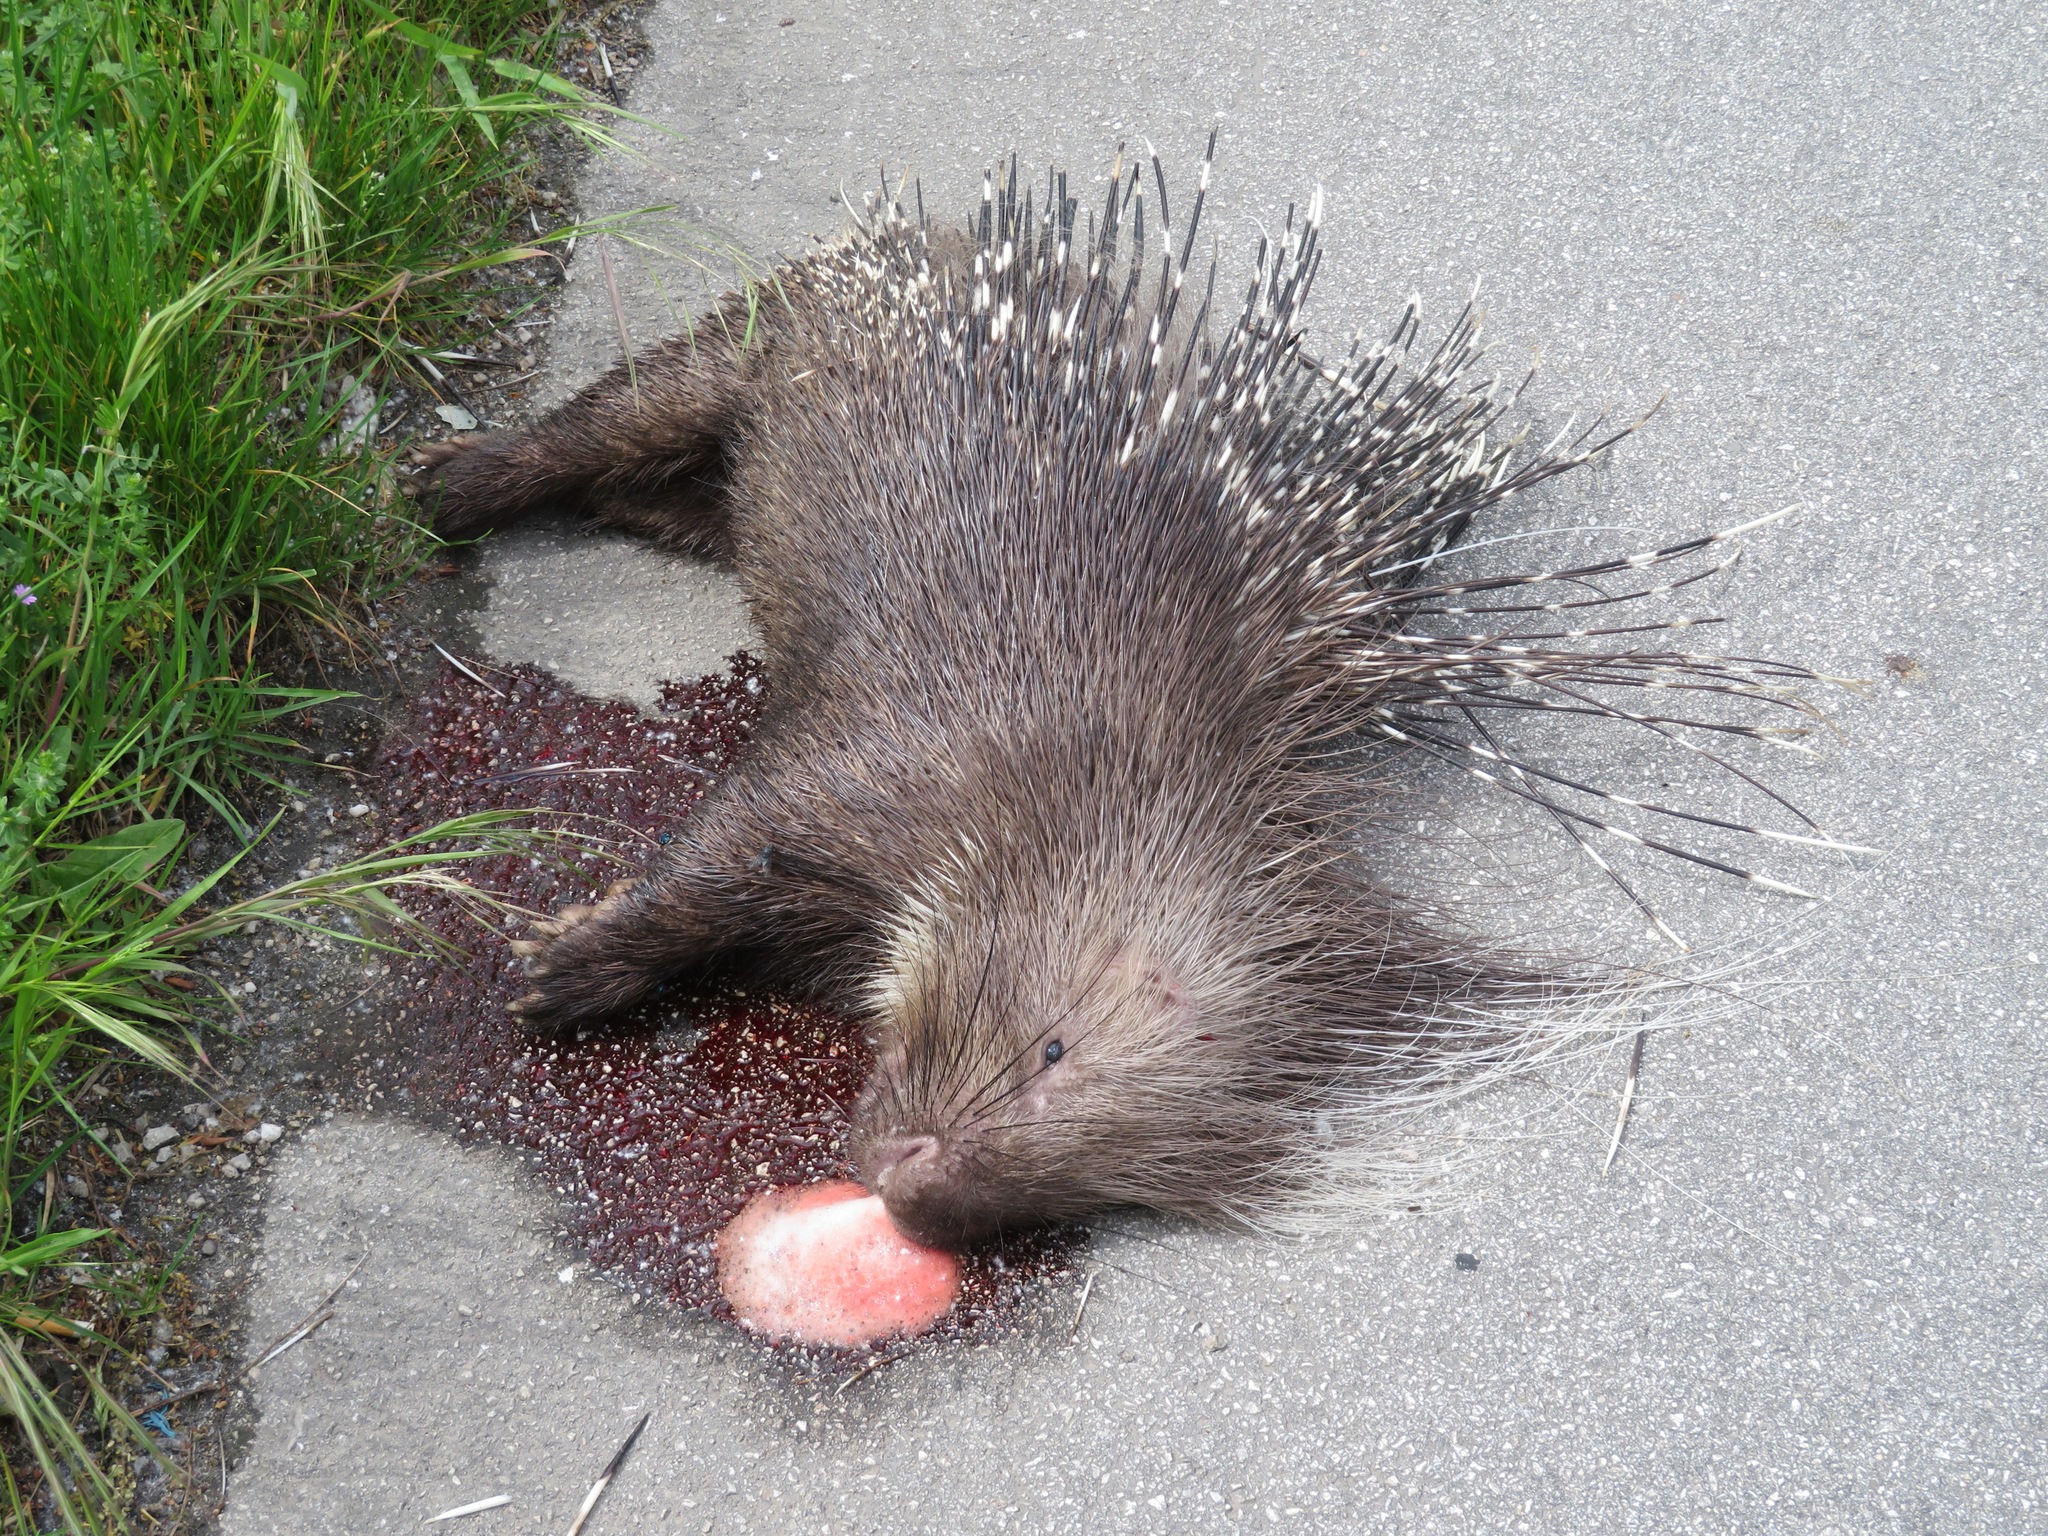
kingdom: Animalia
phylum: Chordata
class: Mammalia
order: Rodentia
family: Hystricidae
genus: Hystrix
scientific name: Hystrix cristata
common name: Crested porcupine
